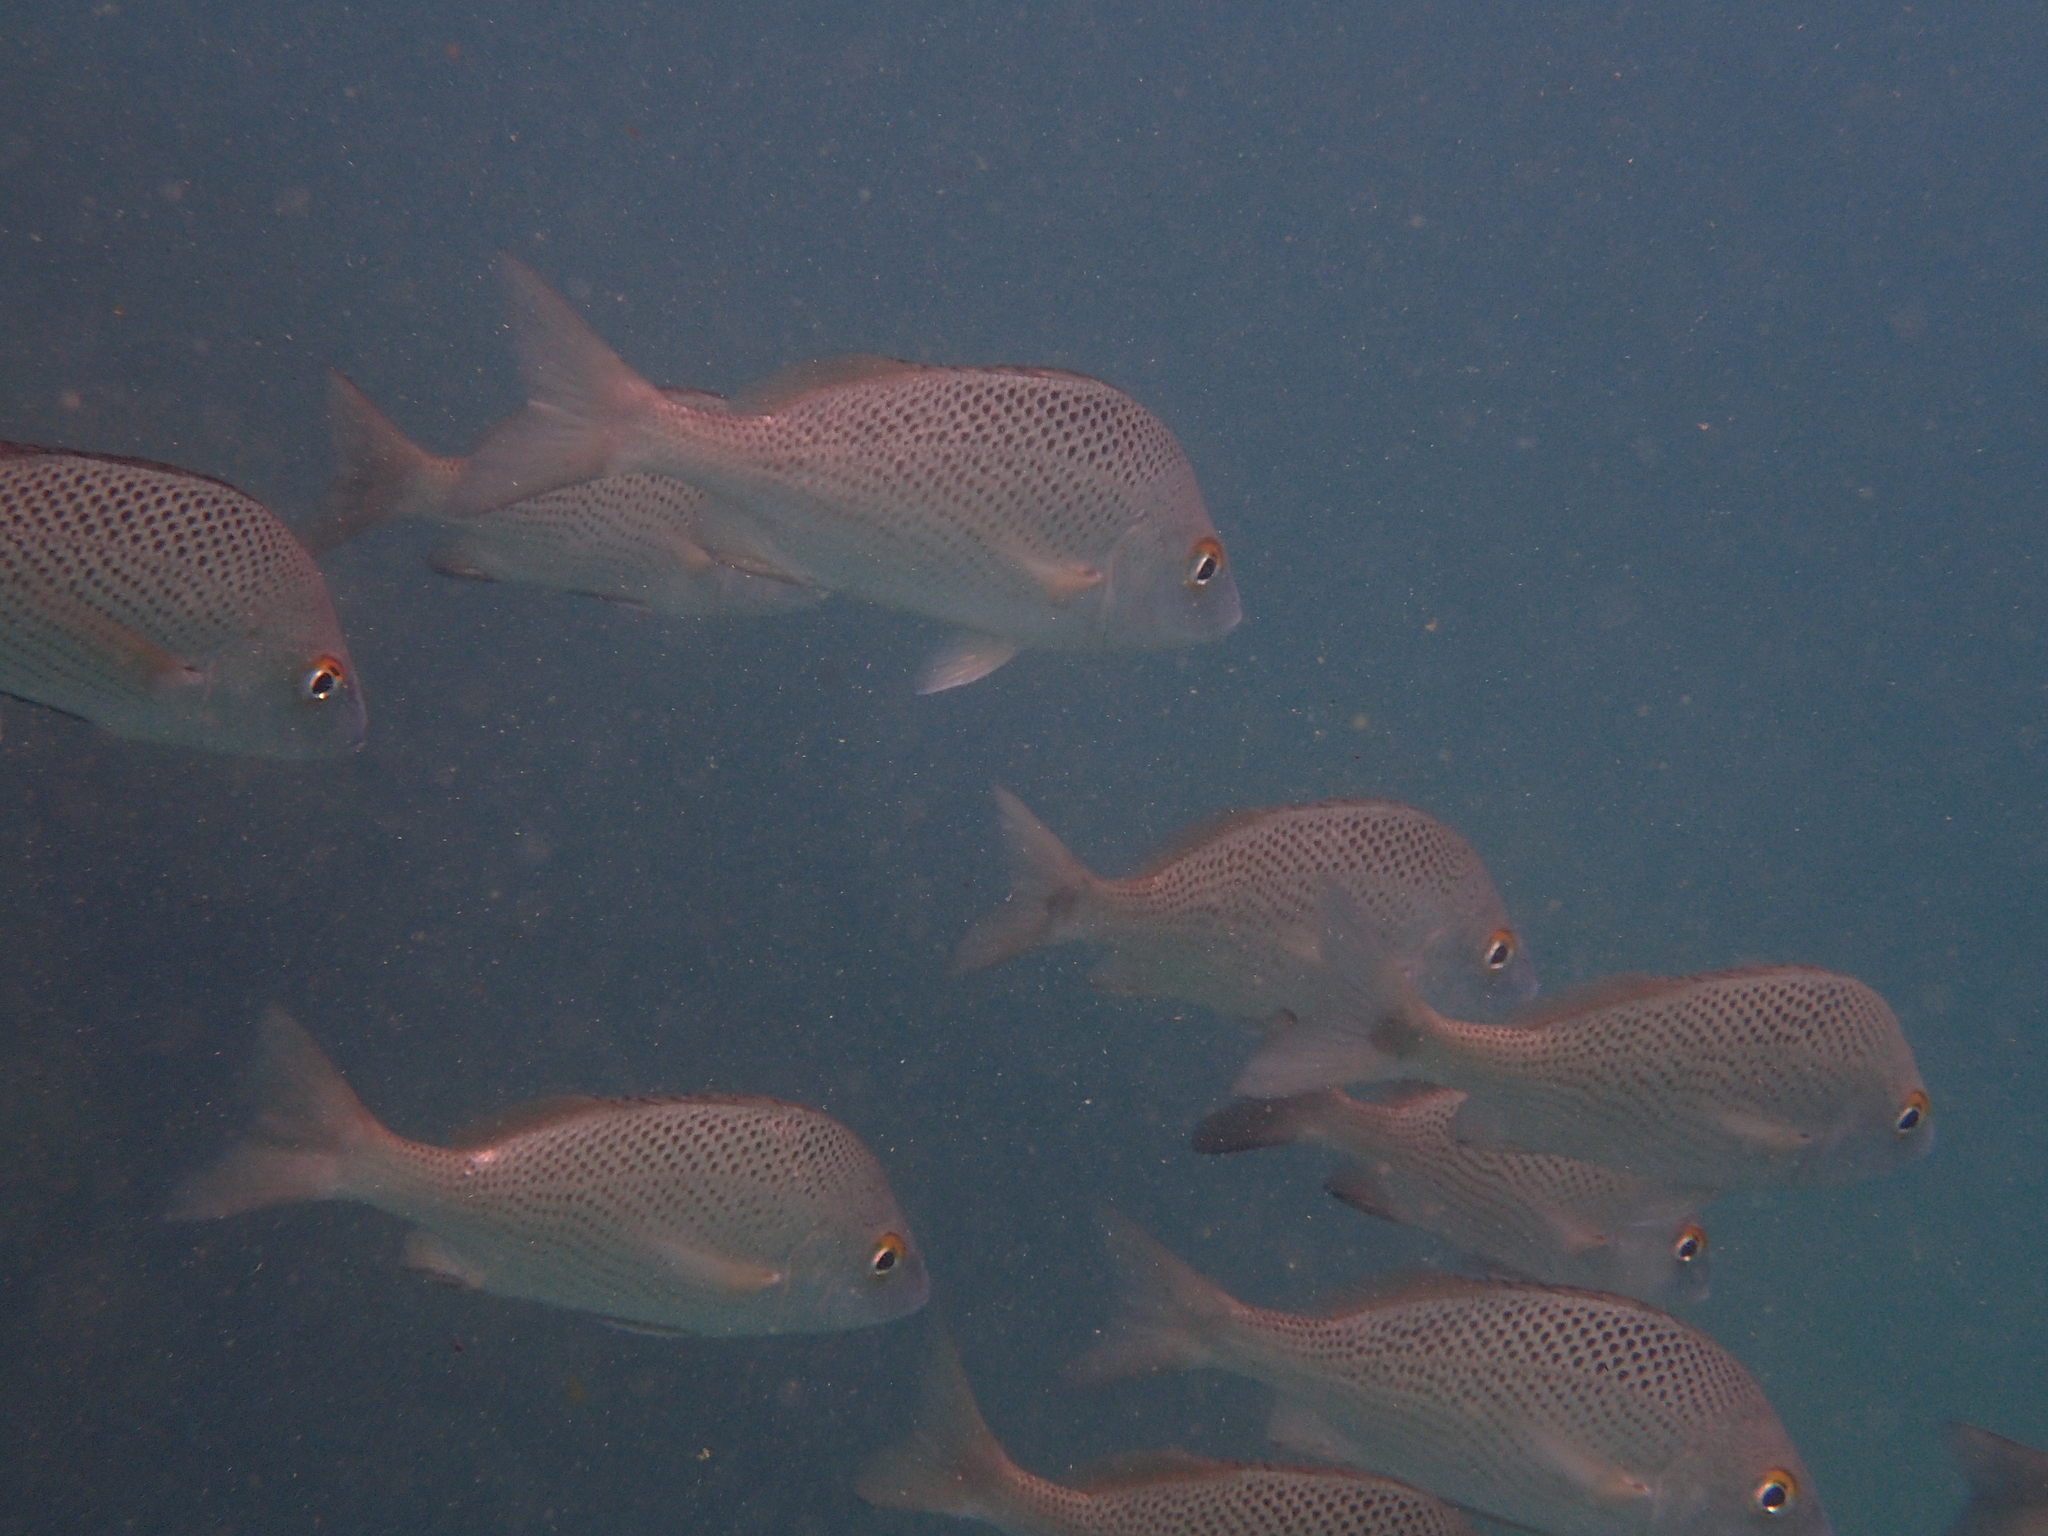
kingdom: Animalia
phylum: Chordata
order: Perciformes
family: Haemulidae
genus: Haemulon
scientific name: Haemulon scudderii
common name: Grey grunt
